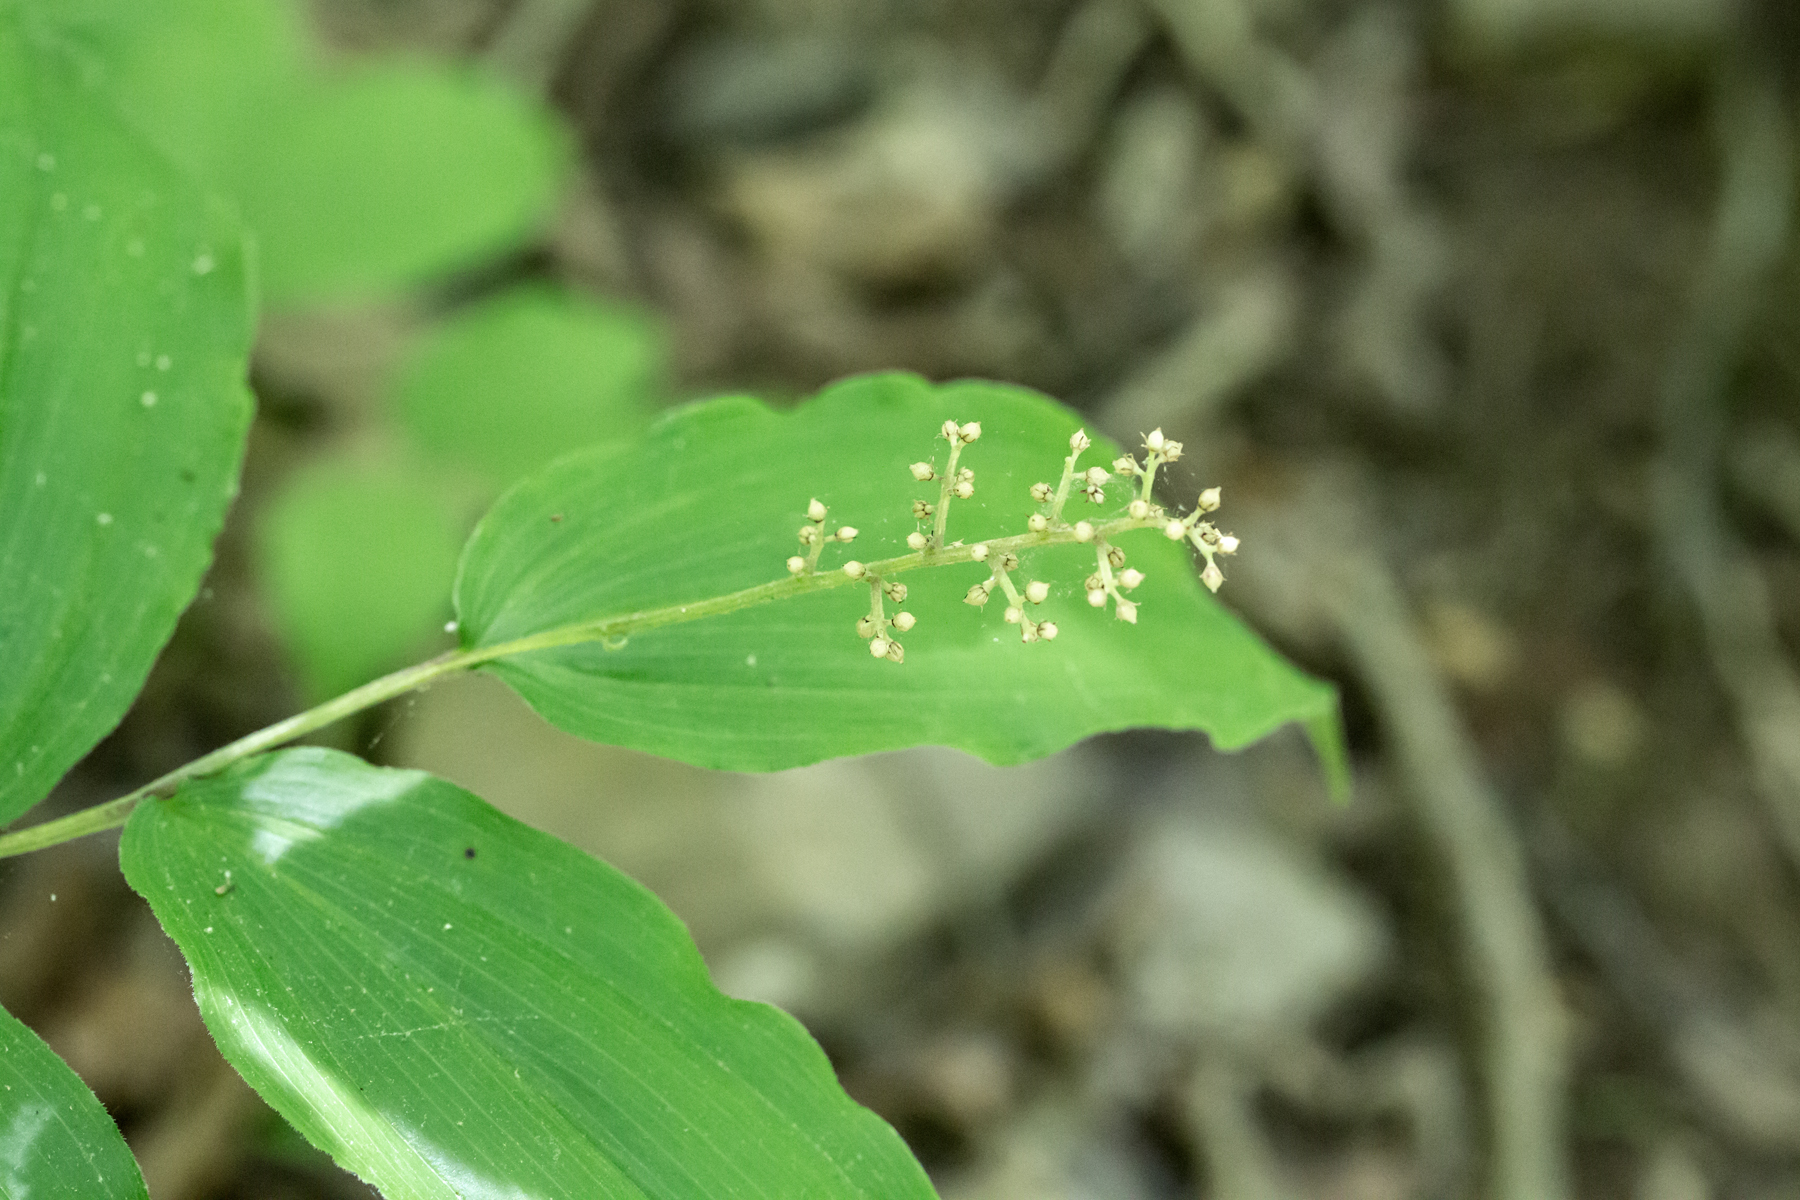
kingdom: Plantae
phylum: Tracheophyta
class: Liliopsida
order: Asparagales
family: Asparagaceae
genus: Maianthemum
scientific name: Maianthemum racemosum
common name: False spikenard
